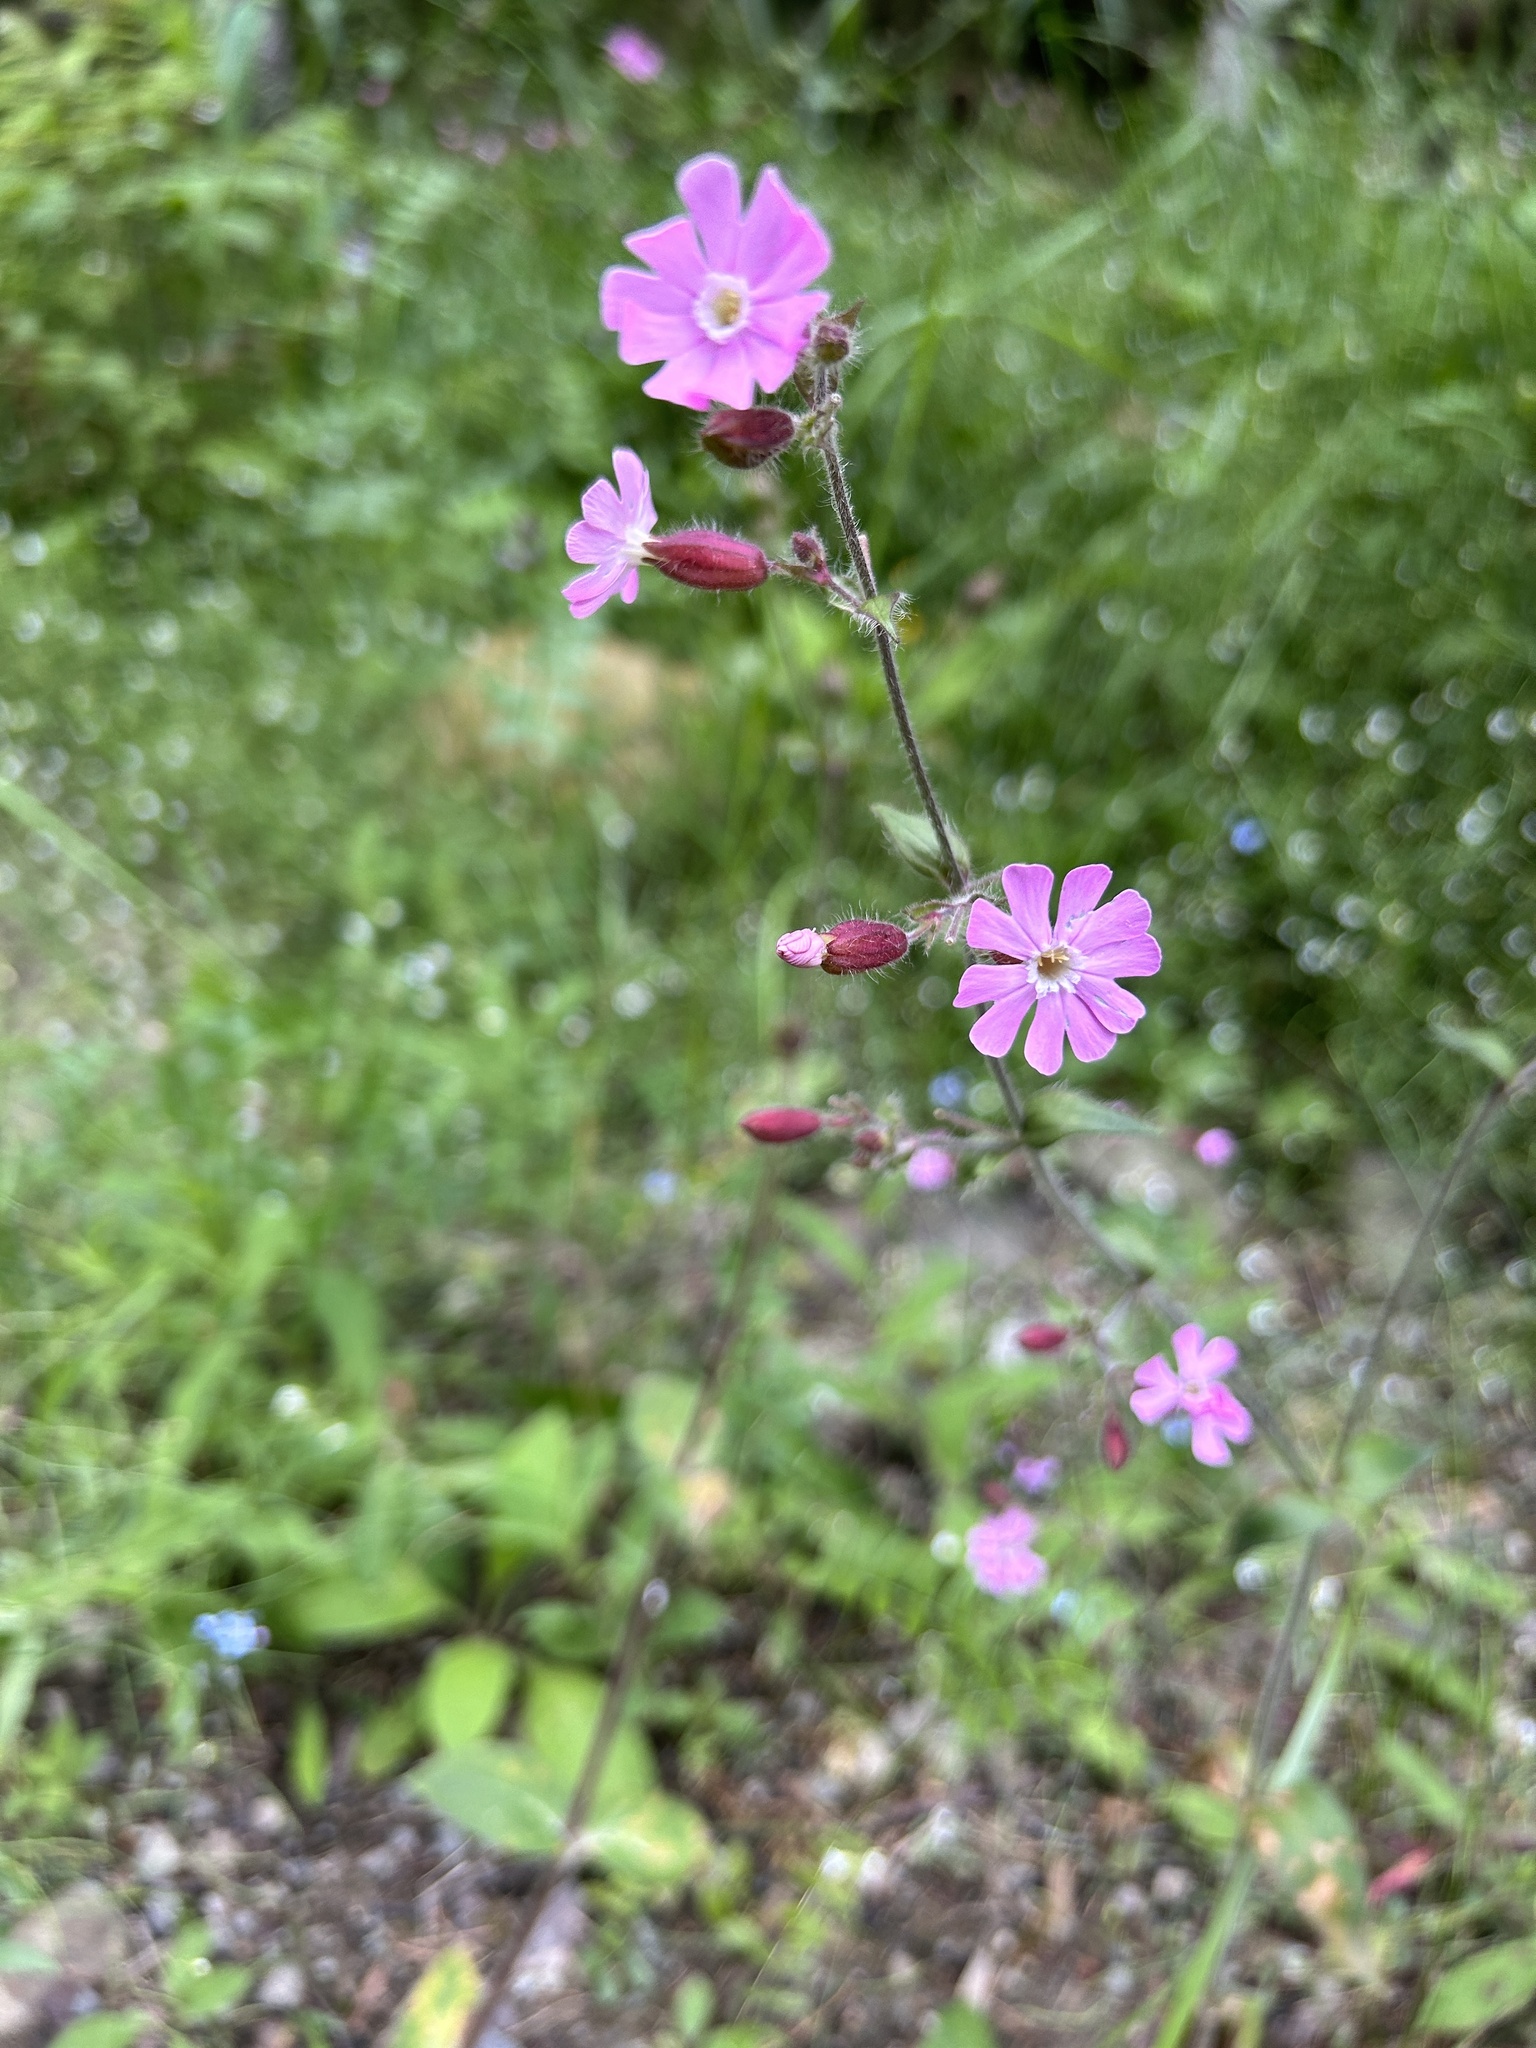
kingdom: Plantae
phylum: Tracheophyta
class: Magnoliopsida
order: Caryophyllales
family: Caryophyllaceae
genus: Silene
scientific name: Silene dioica
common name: Red campion
